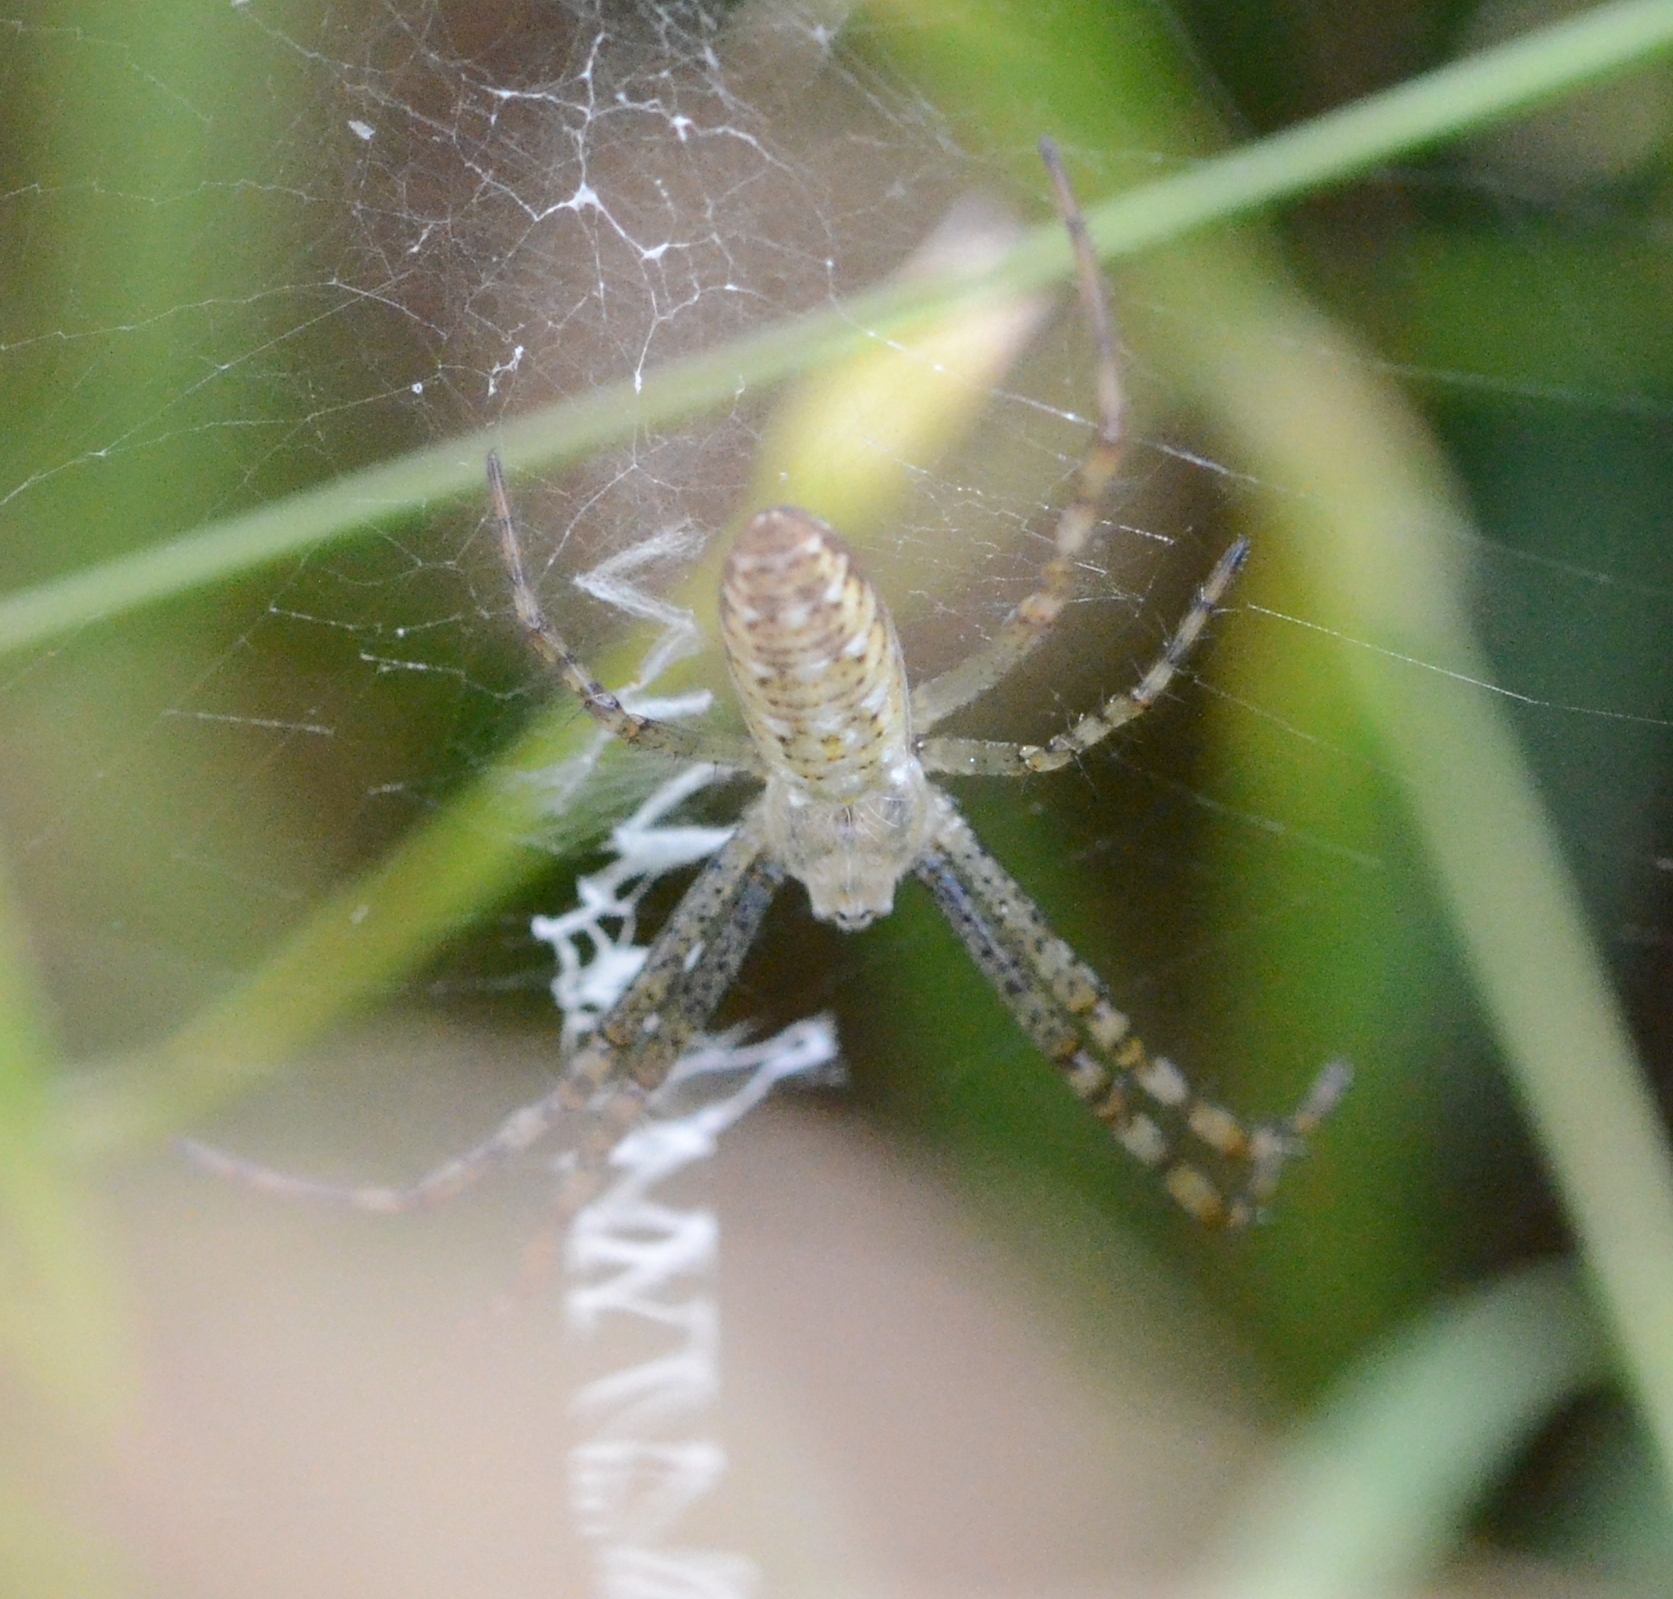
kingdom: Animalia
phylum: Arthropoda
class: Arachnida
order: Araneae
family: Araneidae
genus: Argiope
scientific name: Argiope bruennichi
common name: Wasp spider
